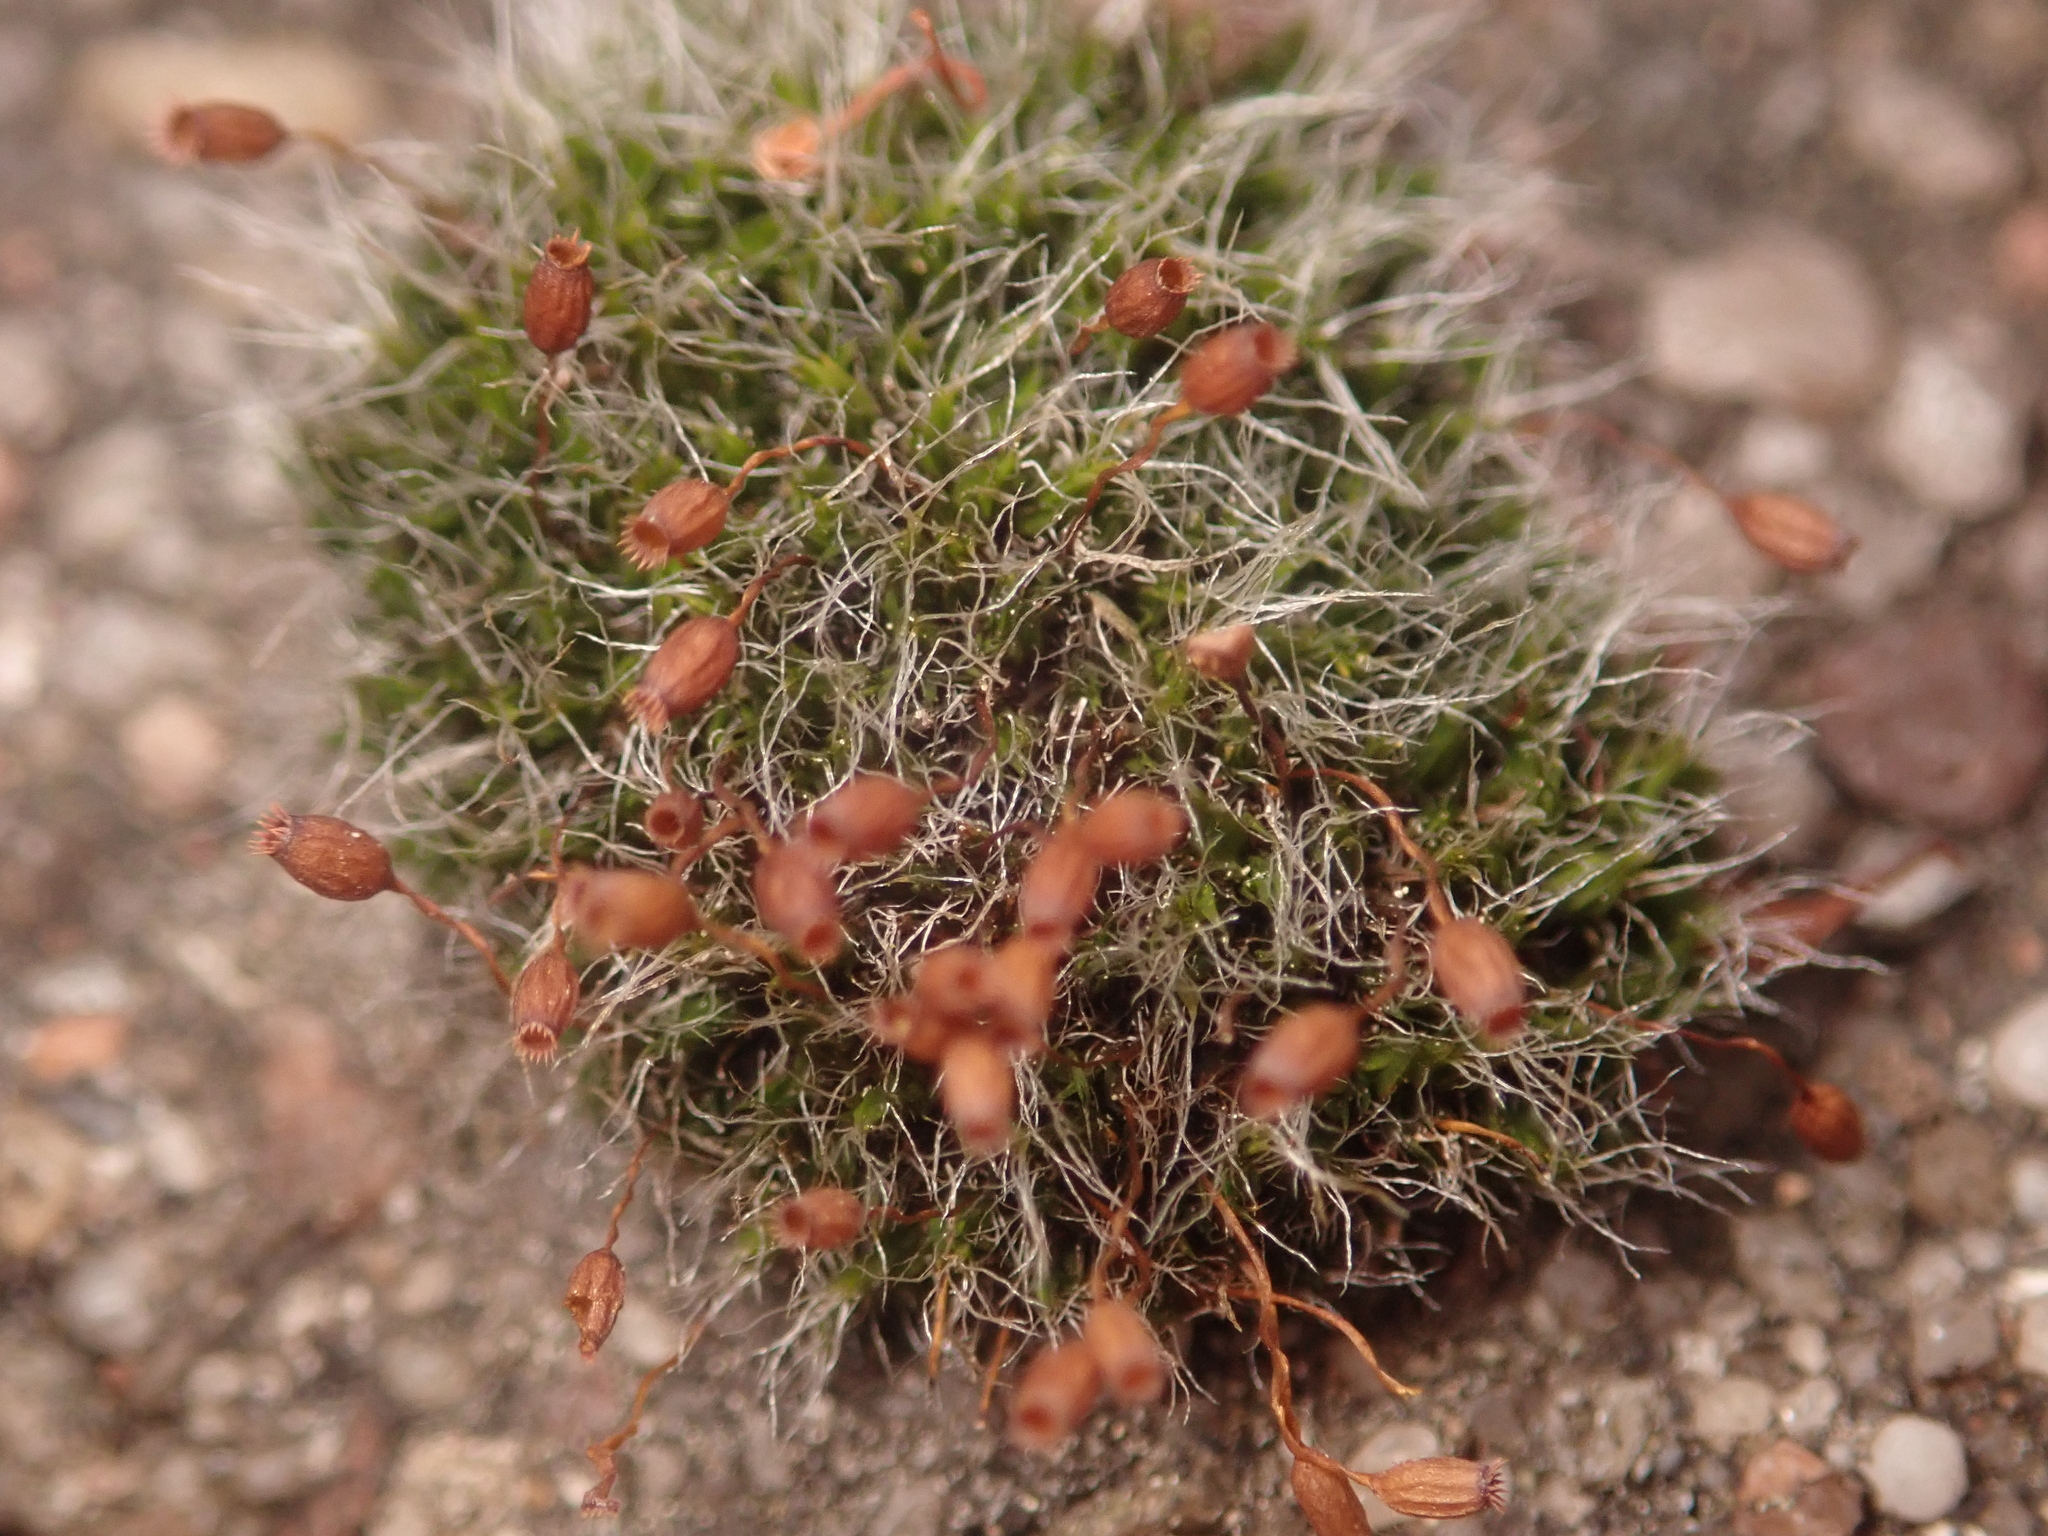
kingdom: Plantae
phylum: Bryophyta
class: Bryopsida
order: Grimmiales
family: Grimmiaceae
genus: Grimmia
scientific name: Grimmia pulvinata
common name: Grey-cushioned grimmia
